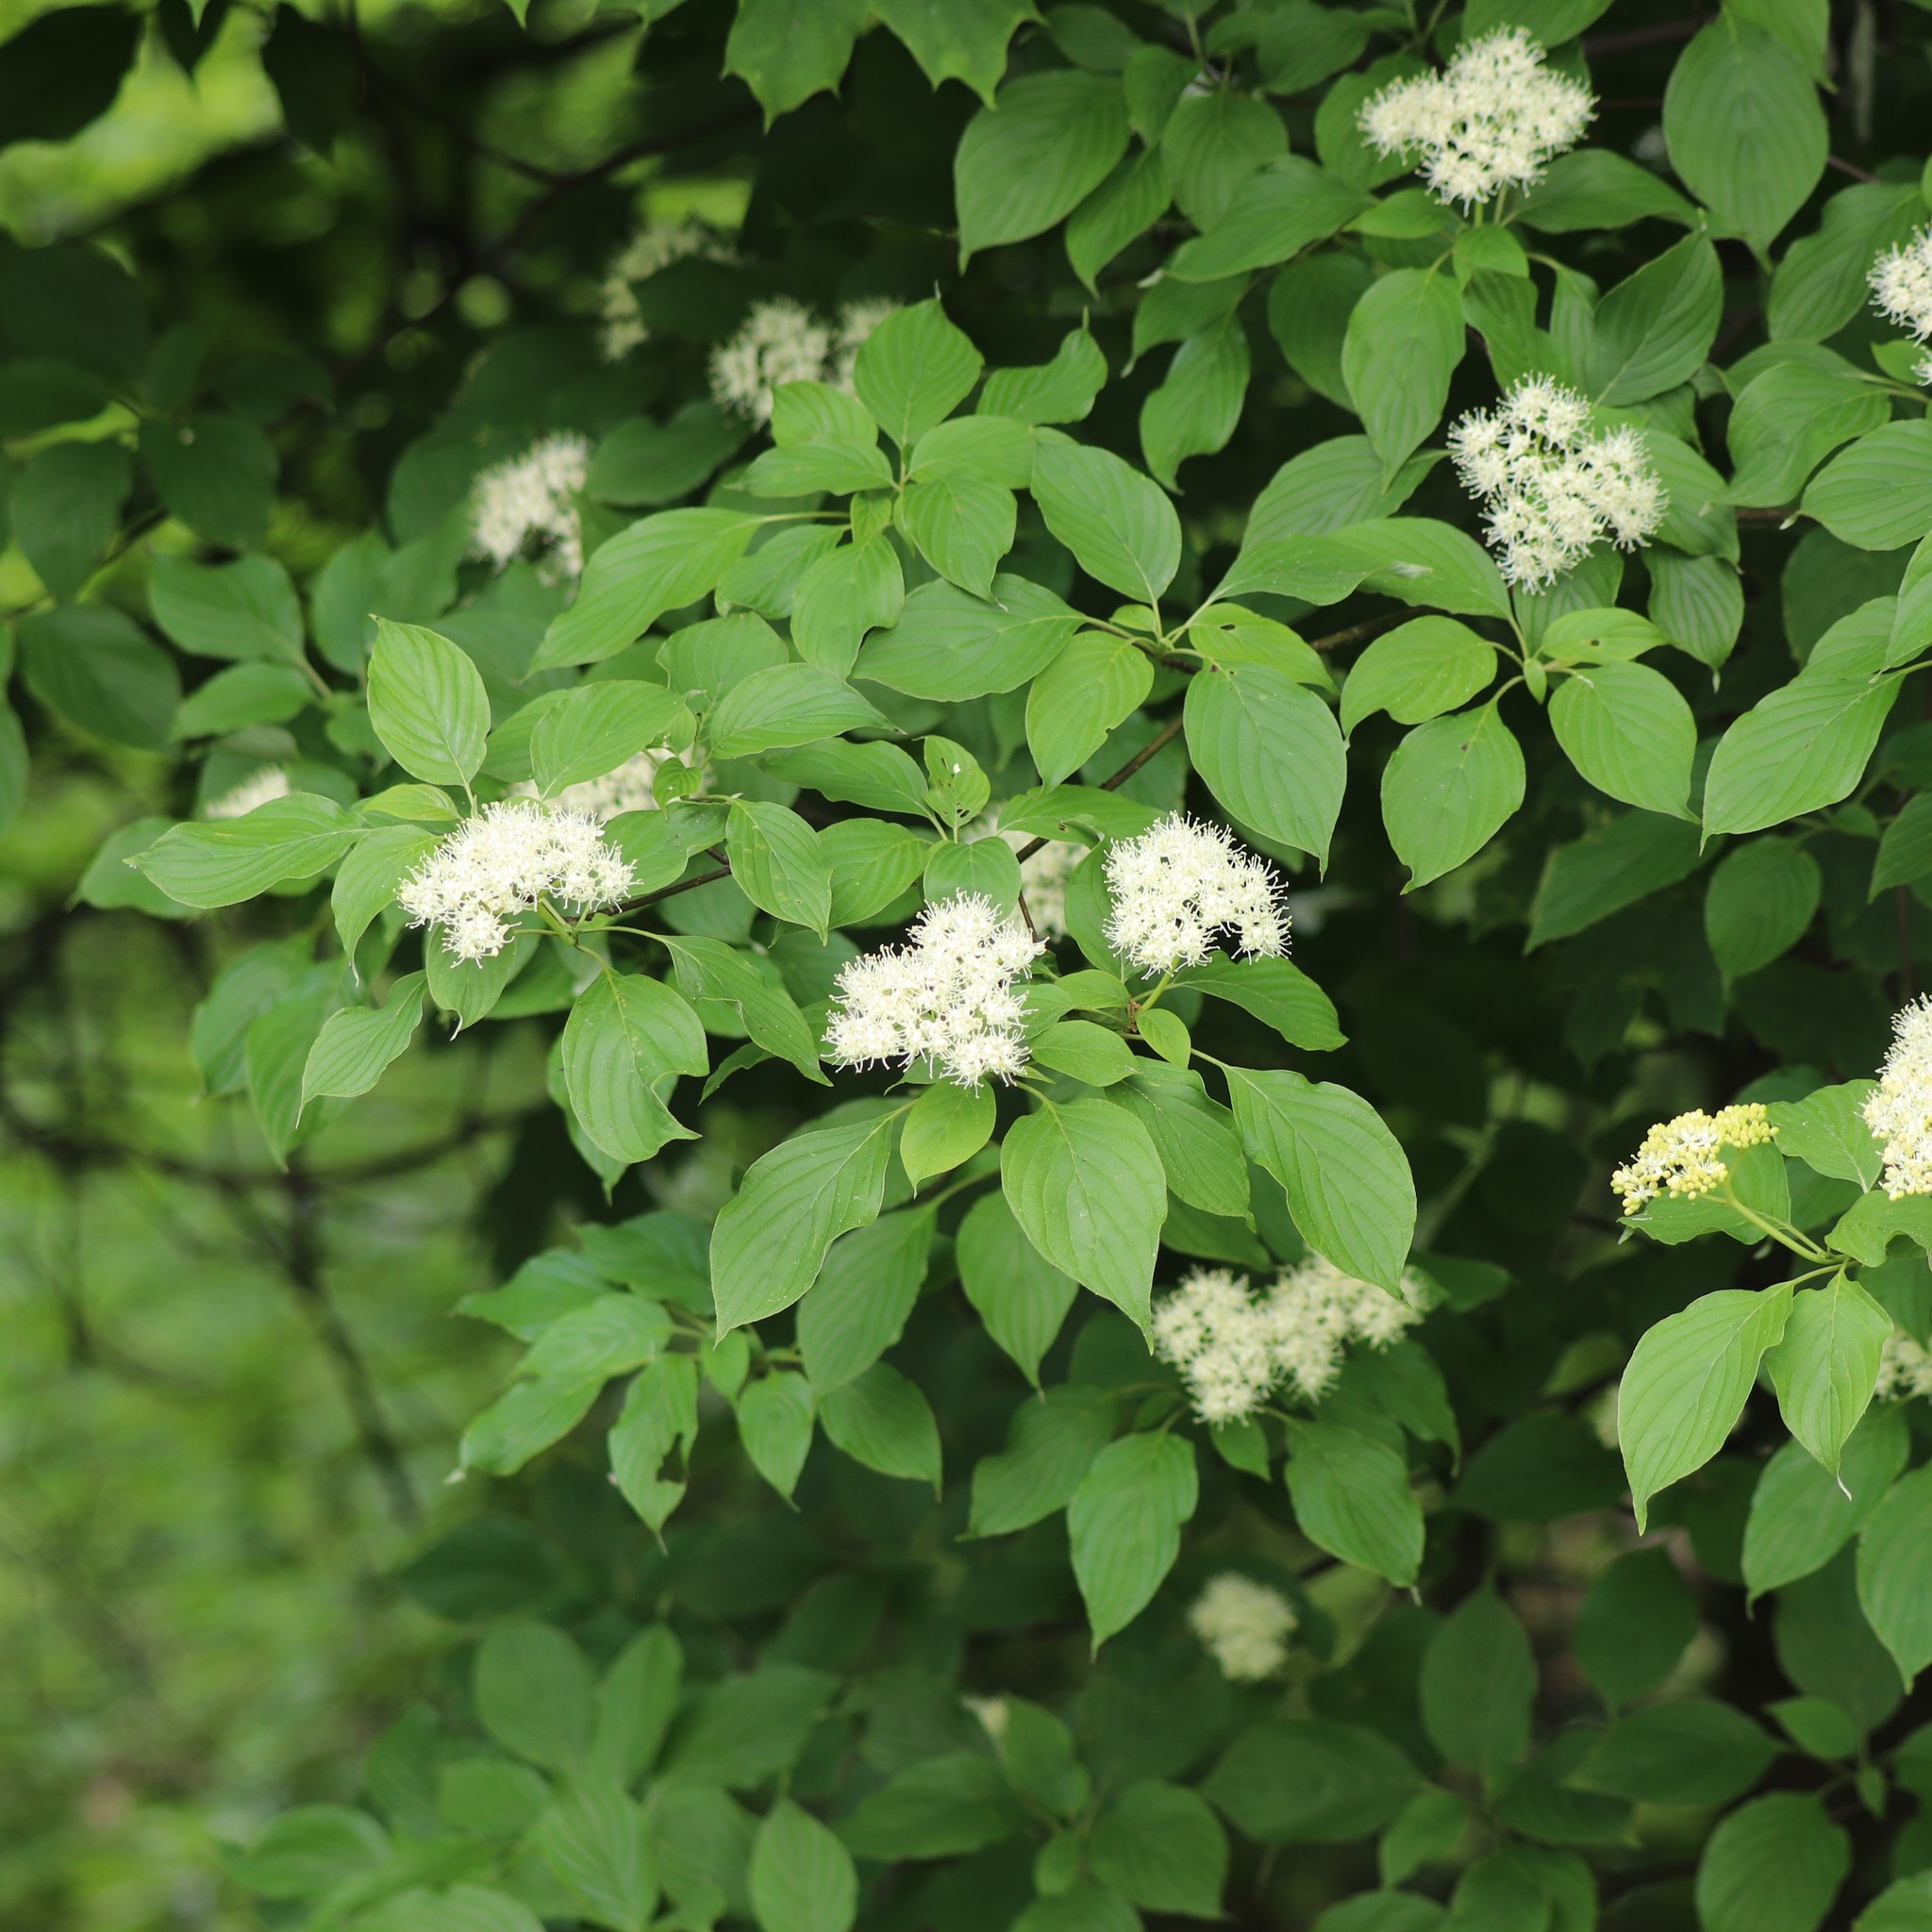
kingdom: Plantae
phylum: Tracheophyta
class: Magnoliopsida
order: Cornales
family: Cornaceae
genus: Cornus
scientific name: Cornus alternifolia
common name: Pagoda dogwood
